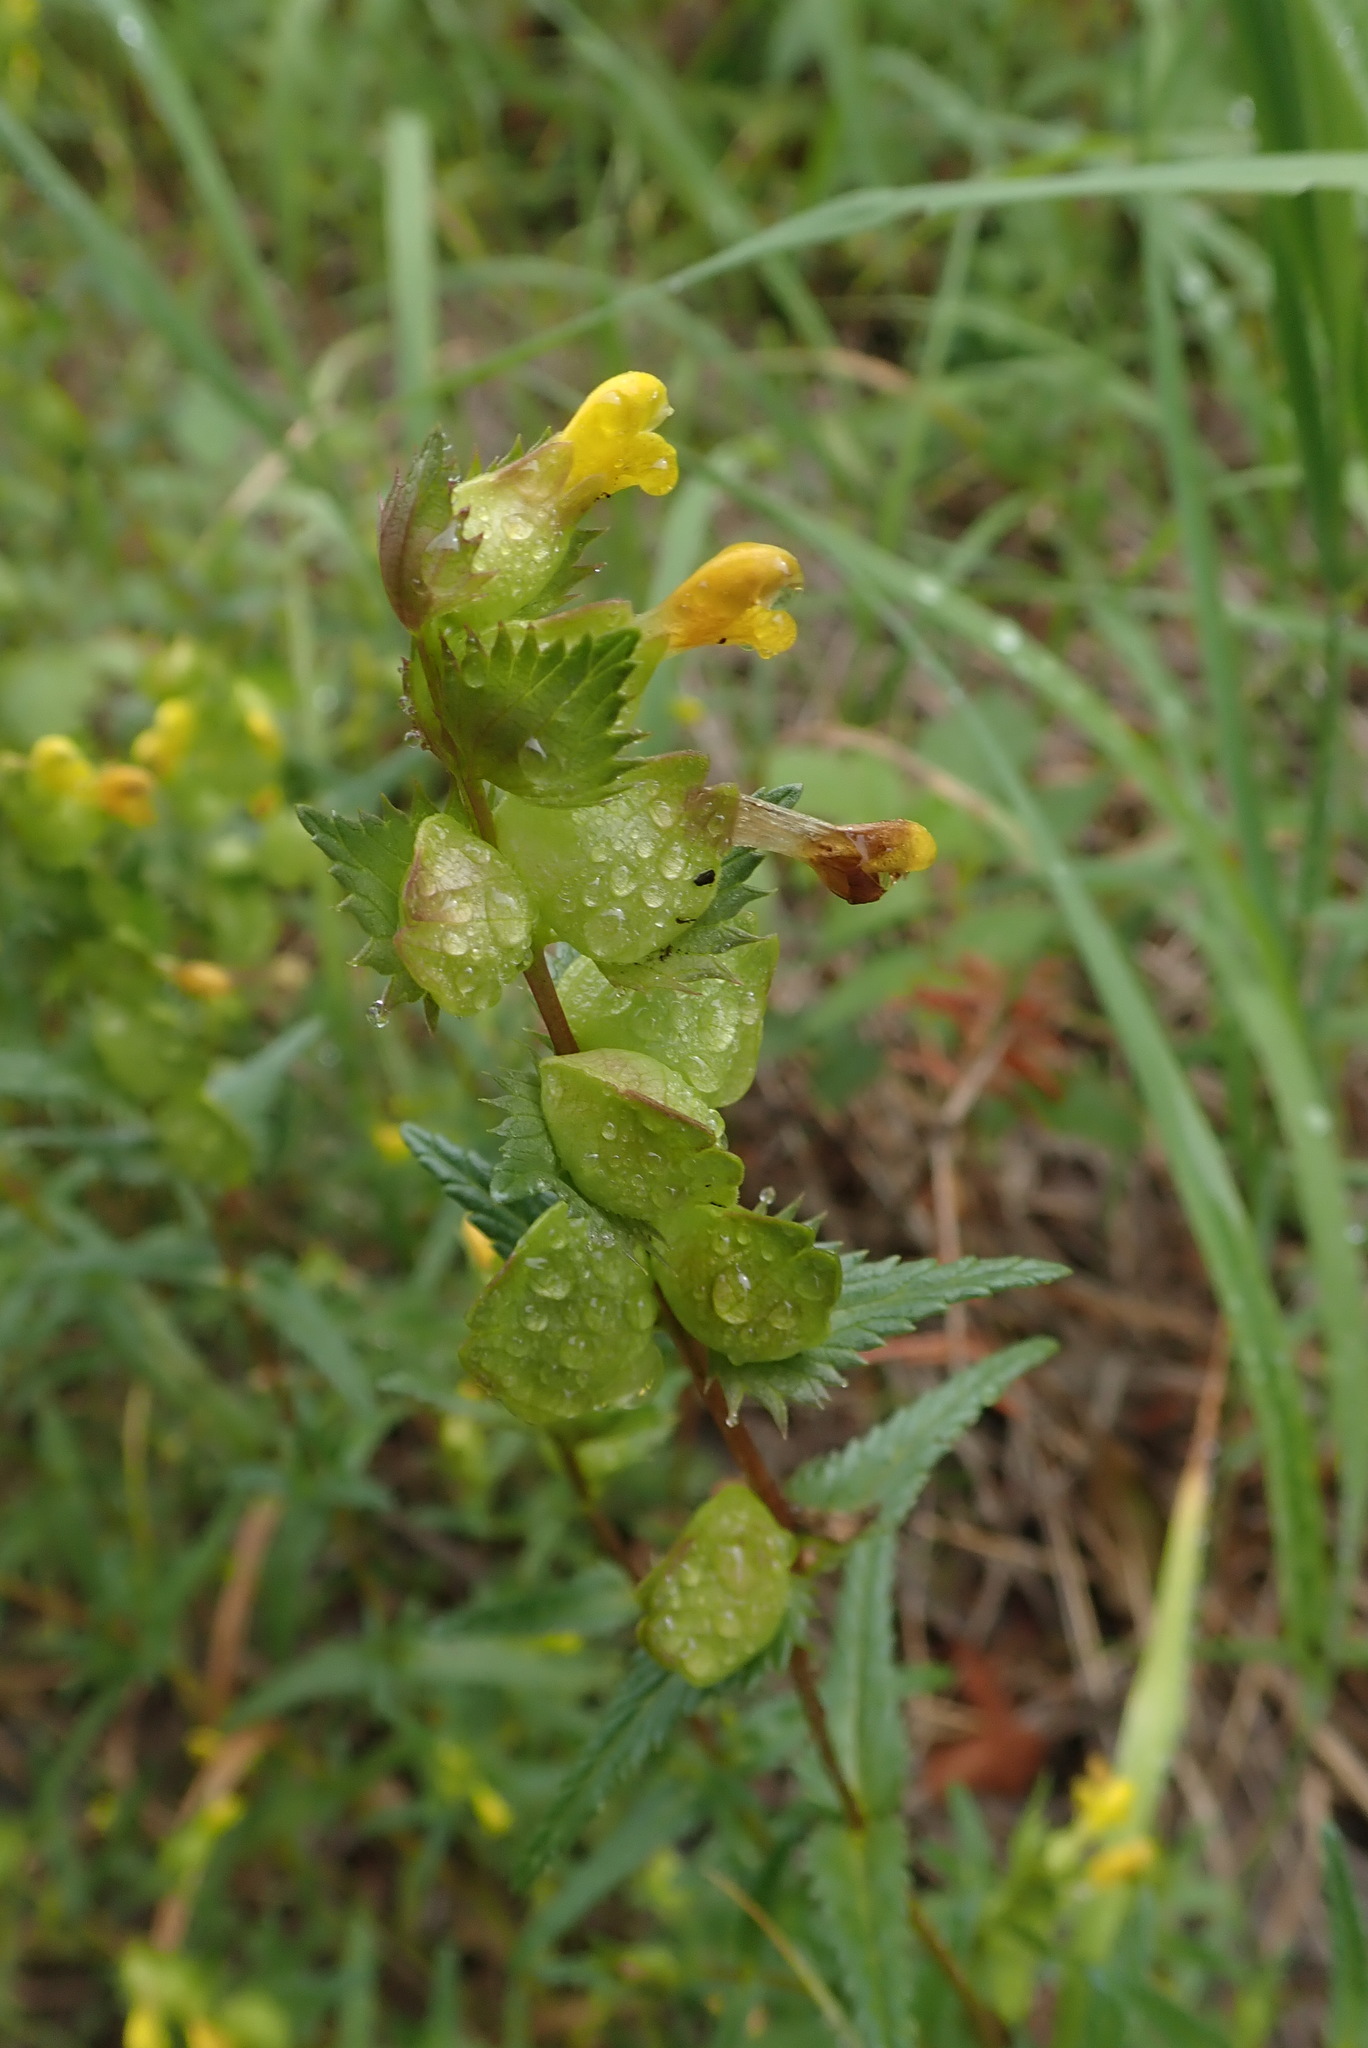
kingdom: Plantae
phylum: Tracheophyta
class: Magnoliopsida
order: Lamiales
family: Orobanchaceae
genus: Rhinanthus
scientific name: Rhinanthus minor
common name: Yellow-rattle
